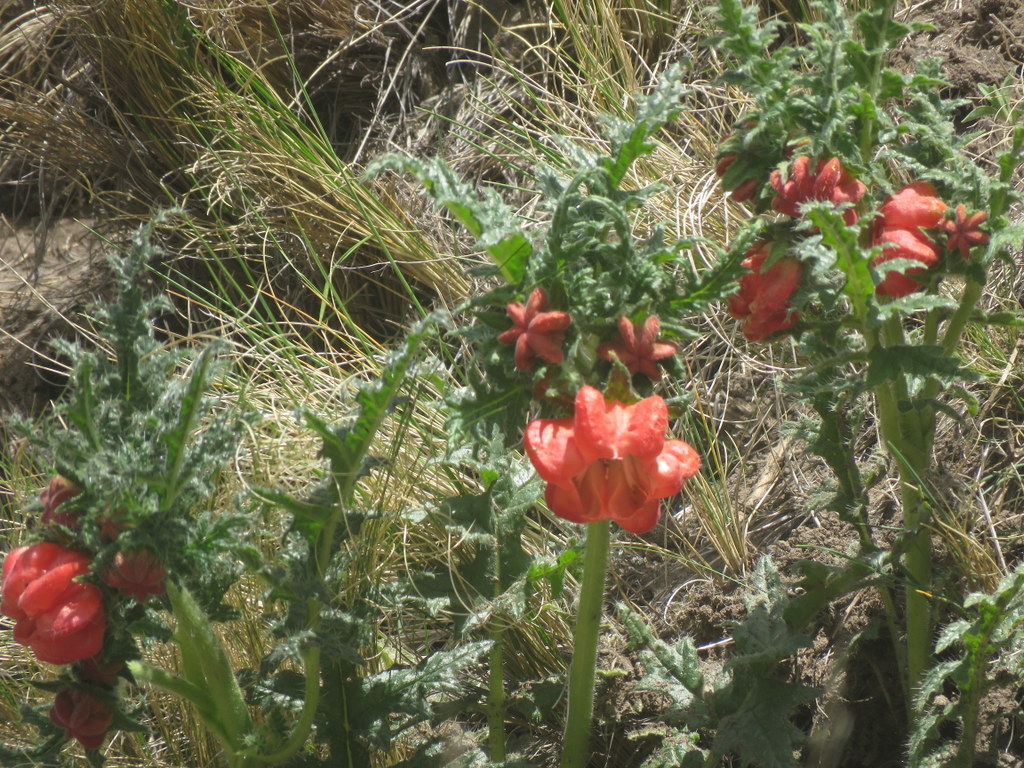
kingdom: Plantae
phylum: Tracheophyta
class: Magnoliopsida
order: Cornales
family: Loasaceae
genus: Caiophora
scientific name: Caiophora chuquitensis
